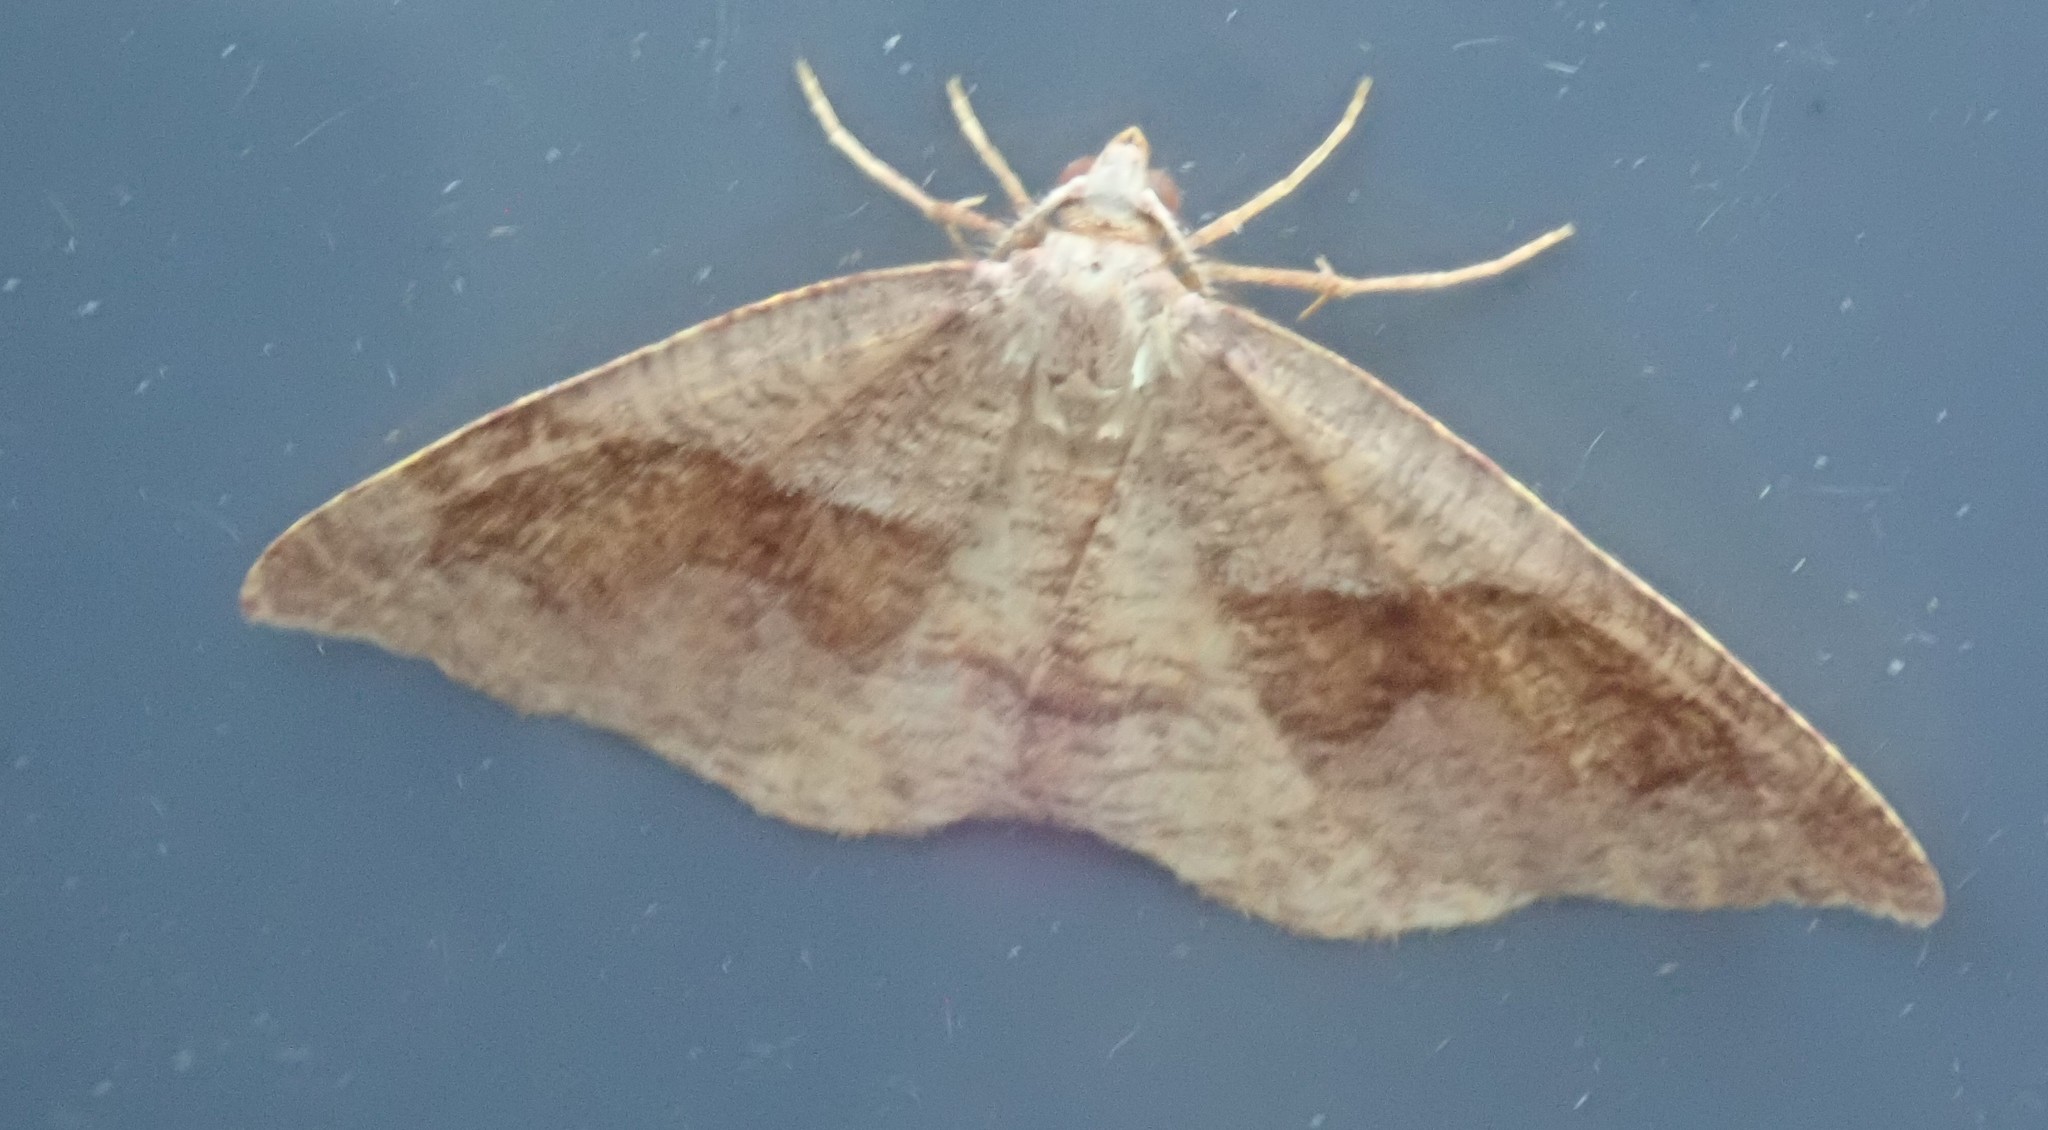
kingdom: Animalia
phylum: Arthropoda
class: Insecta
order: Lepidoptera
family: Geometridae
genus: Plagodis
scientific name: Plagodis pulveraria
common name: Barred umber
